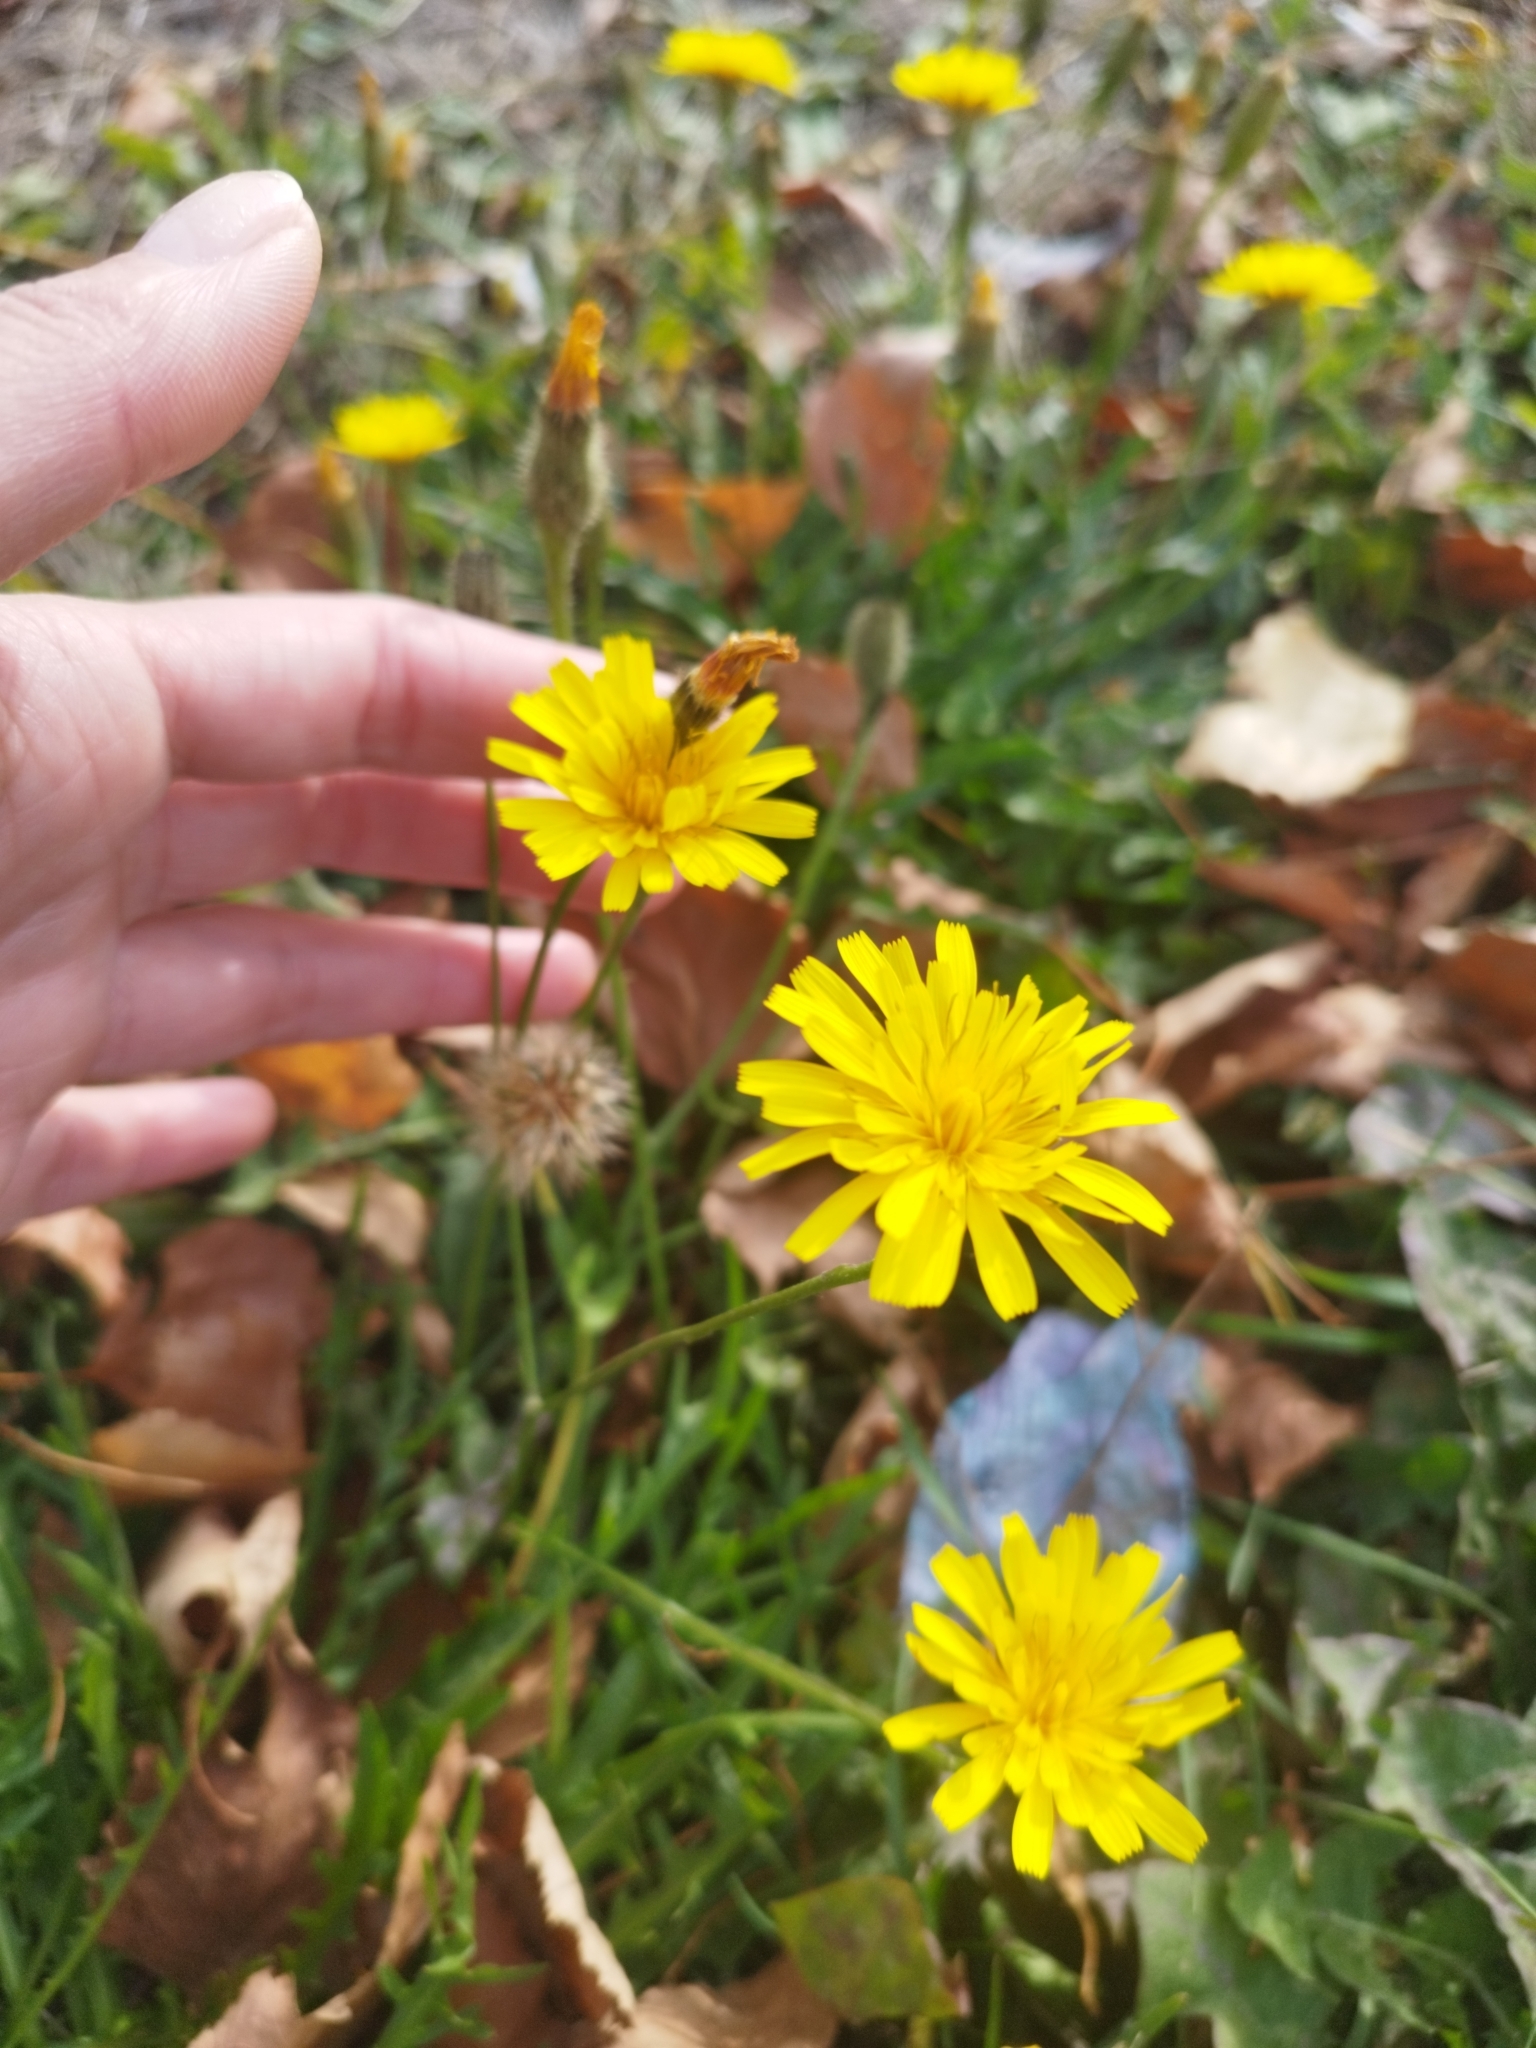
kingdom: Plantae
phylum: Tracheophyta
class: Magnoliopsida
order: Asterales
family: Asteraceae
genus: Scorzoneroides
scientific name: Scorzoneroides autumnalis
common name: Autumn hawkbit
